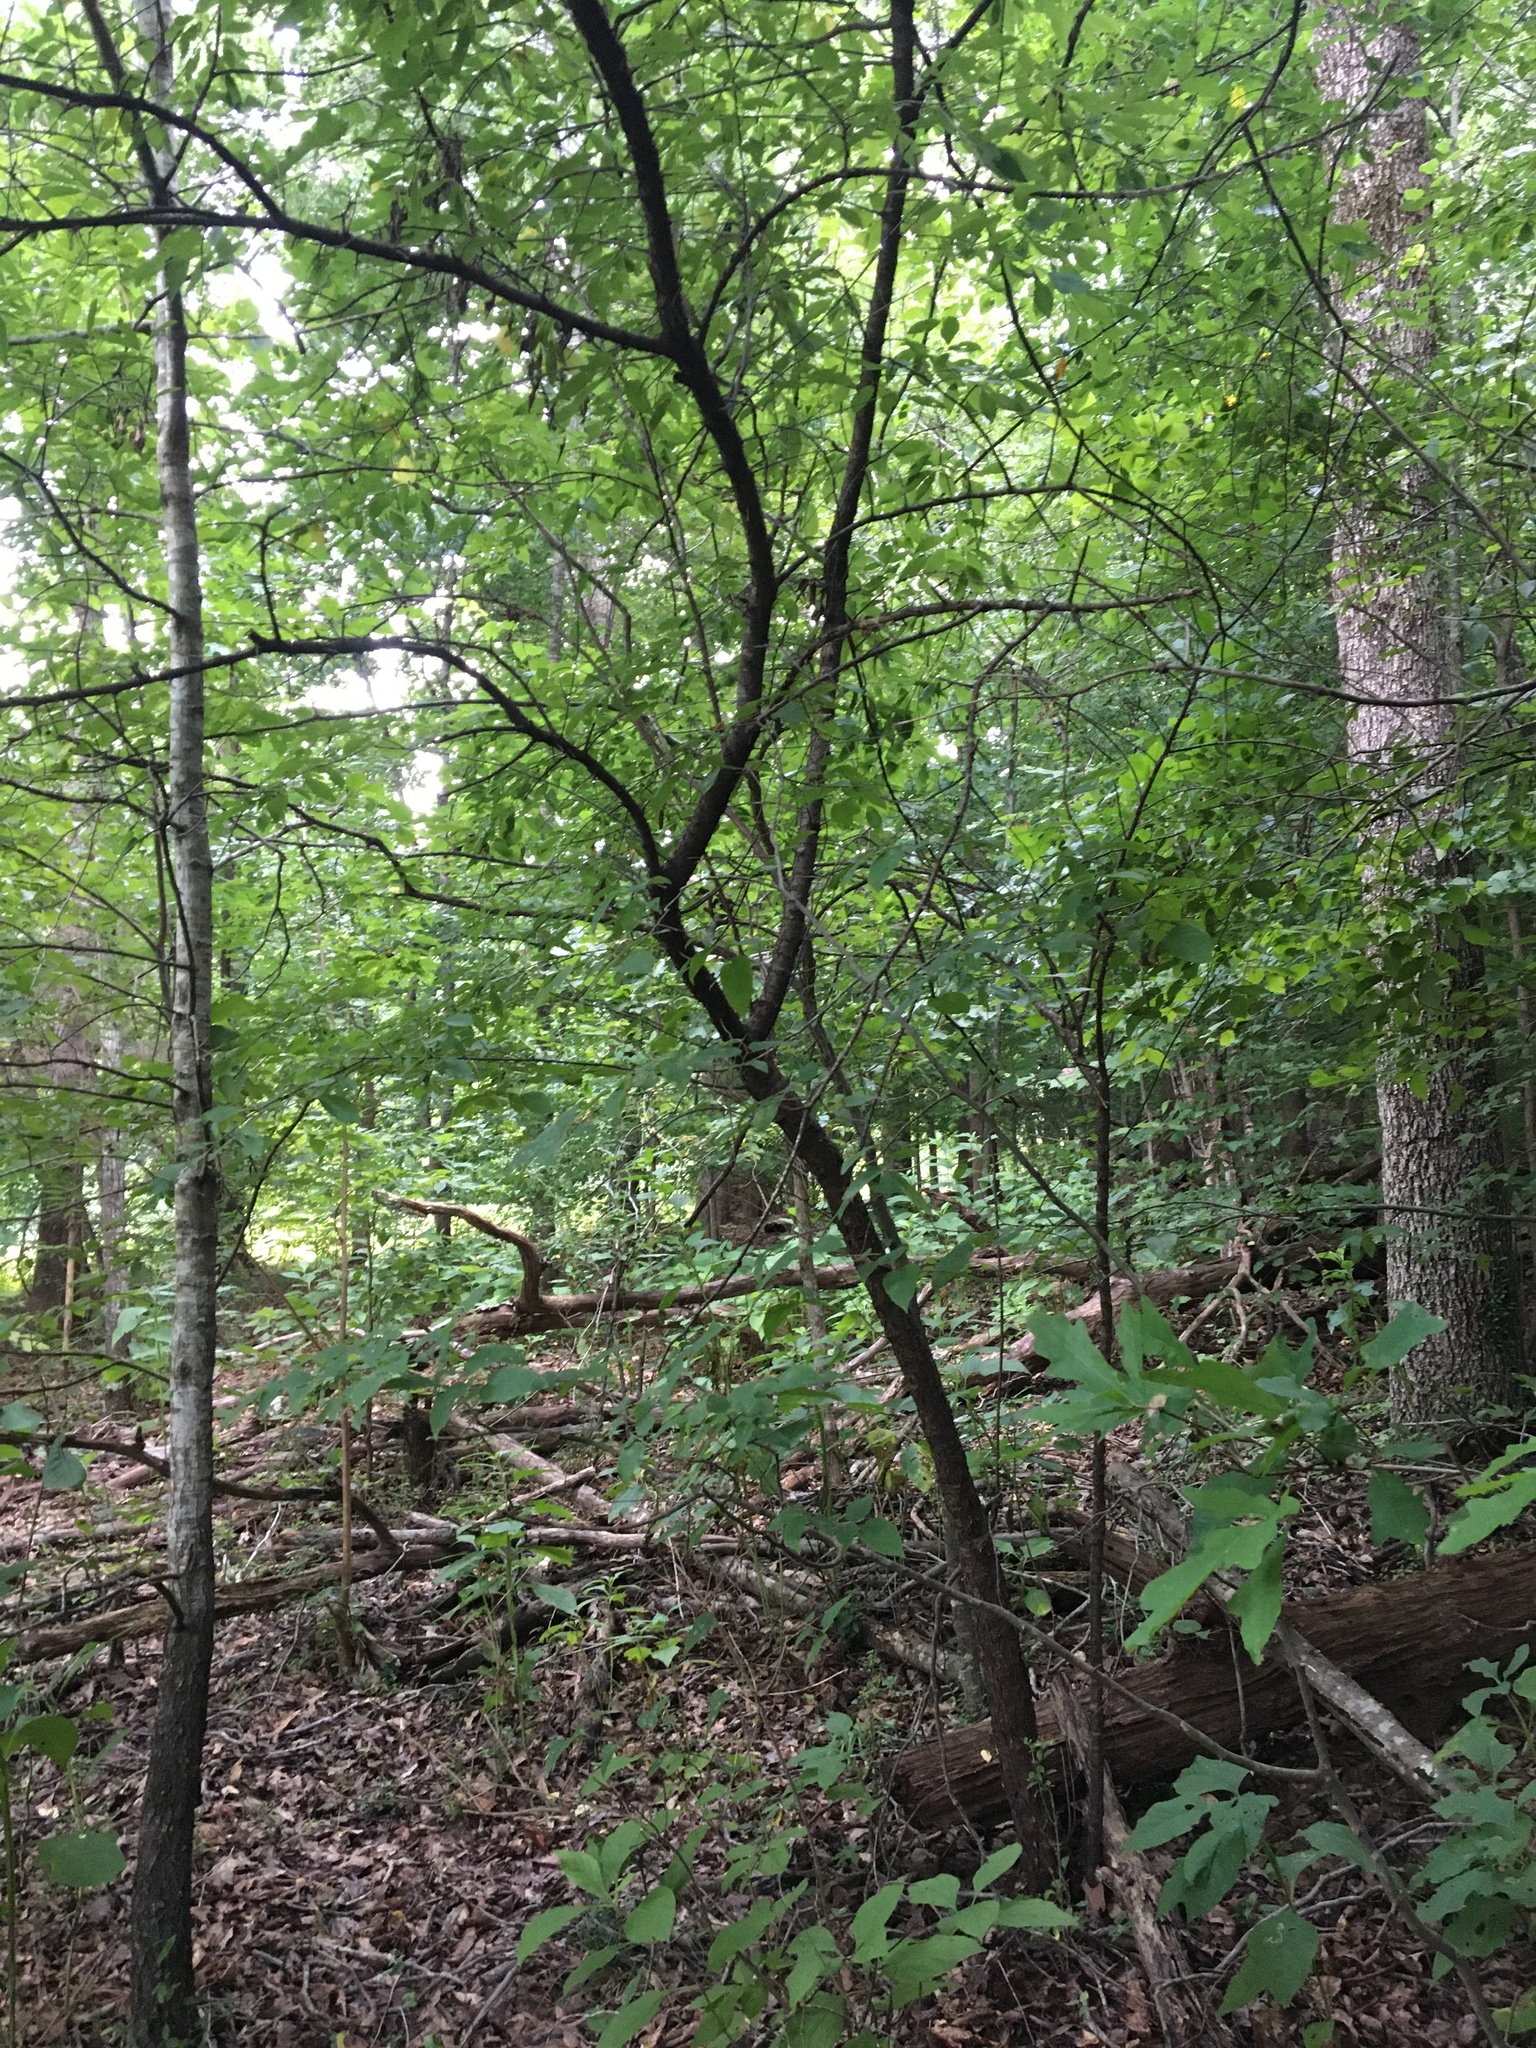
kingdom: Animalia
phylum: Chordata
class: Aves
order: Strigiformes
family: Strigidae
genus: Strix
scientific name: Strix varia
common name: Barred owl
